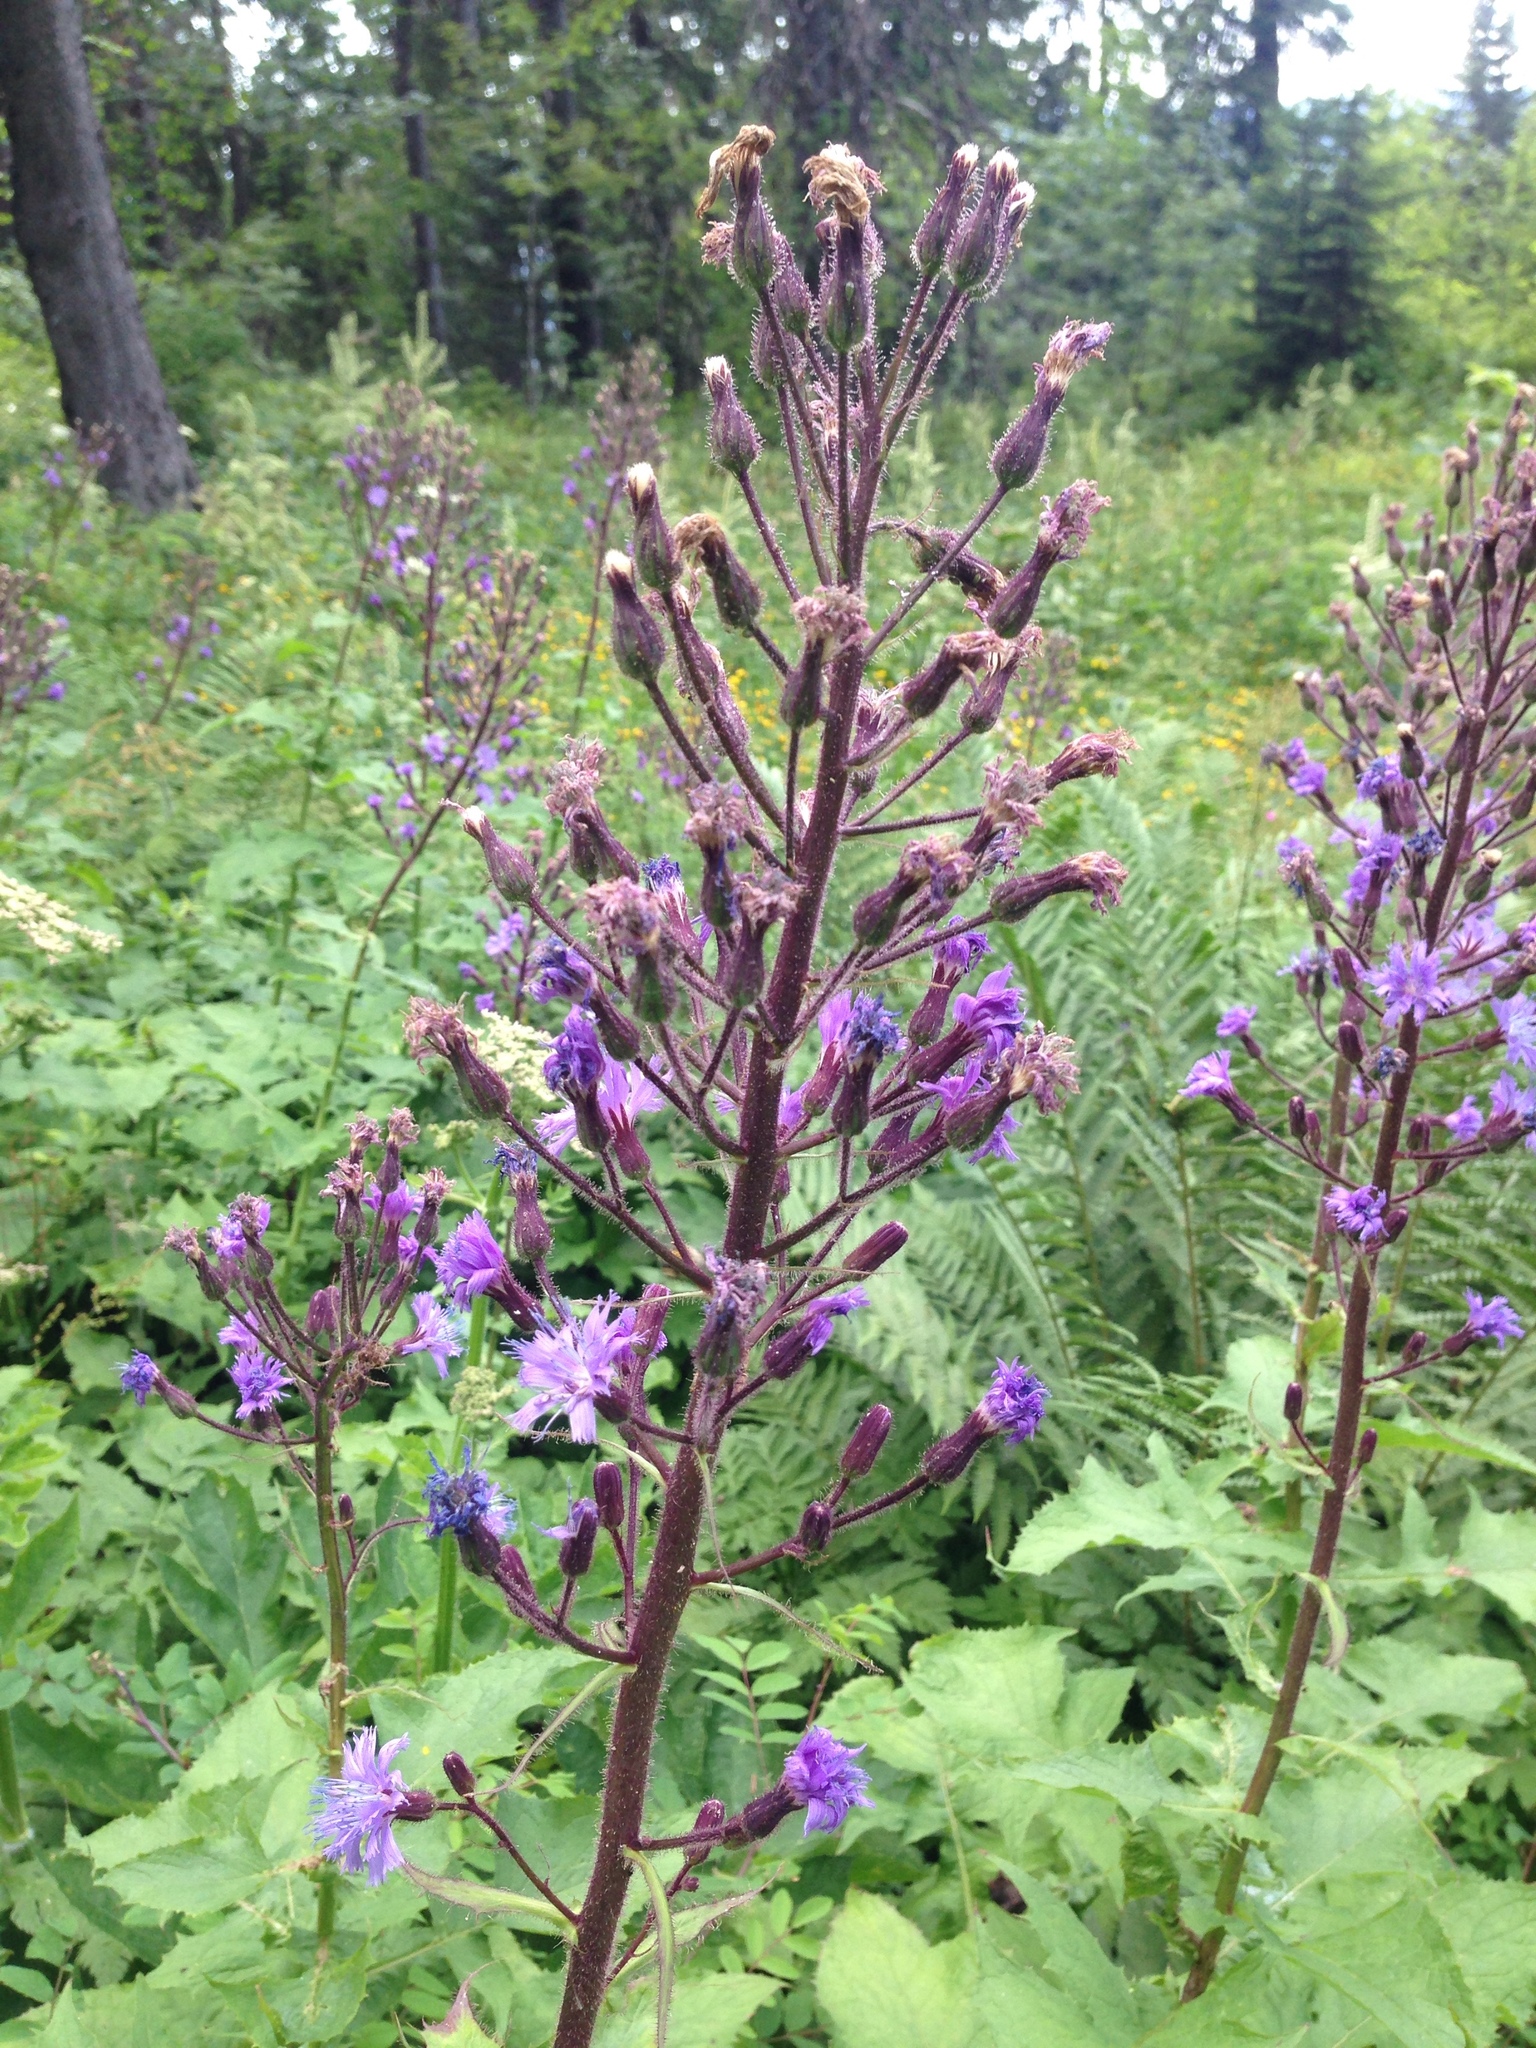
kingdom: Plantae
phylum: Tracheophyta
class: Magnoliopsida
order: Asterales
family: Asteraceae
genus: Cicerbita
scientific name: Cicerbita alpina
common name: Alpine blue-sow-thistle
